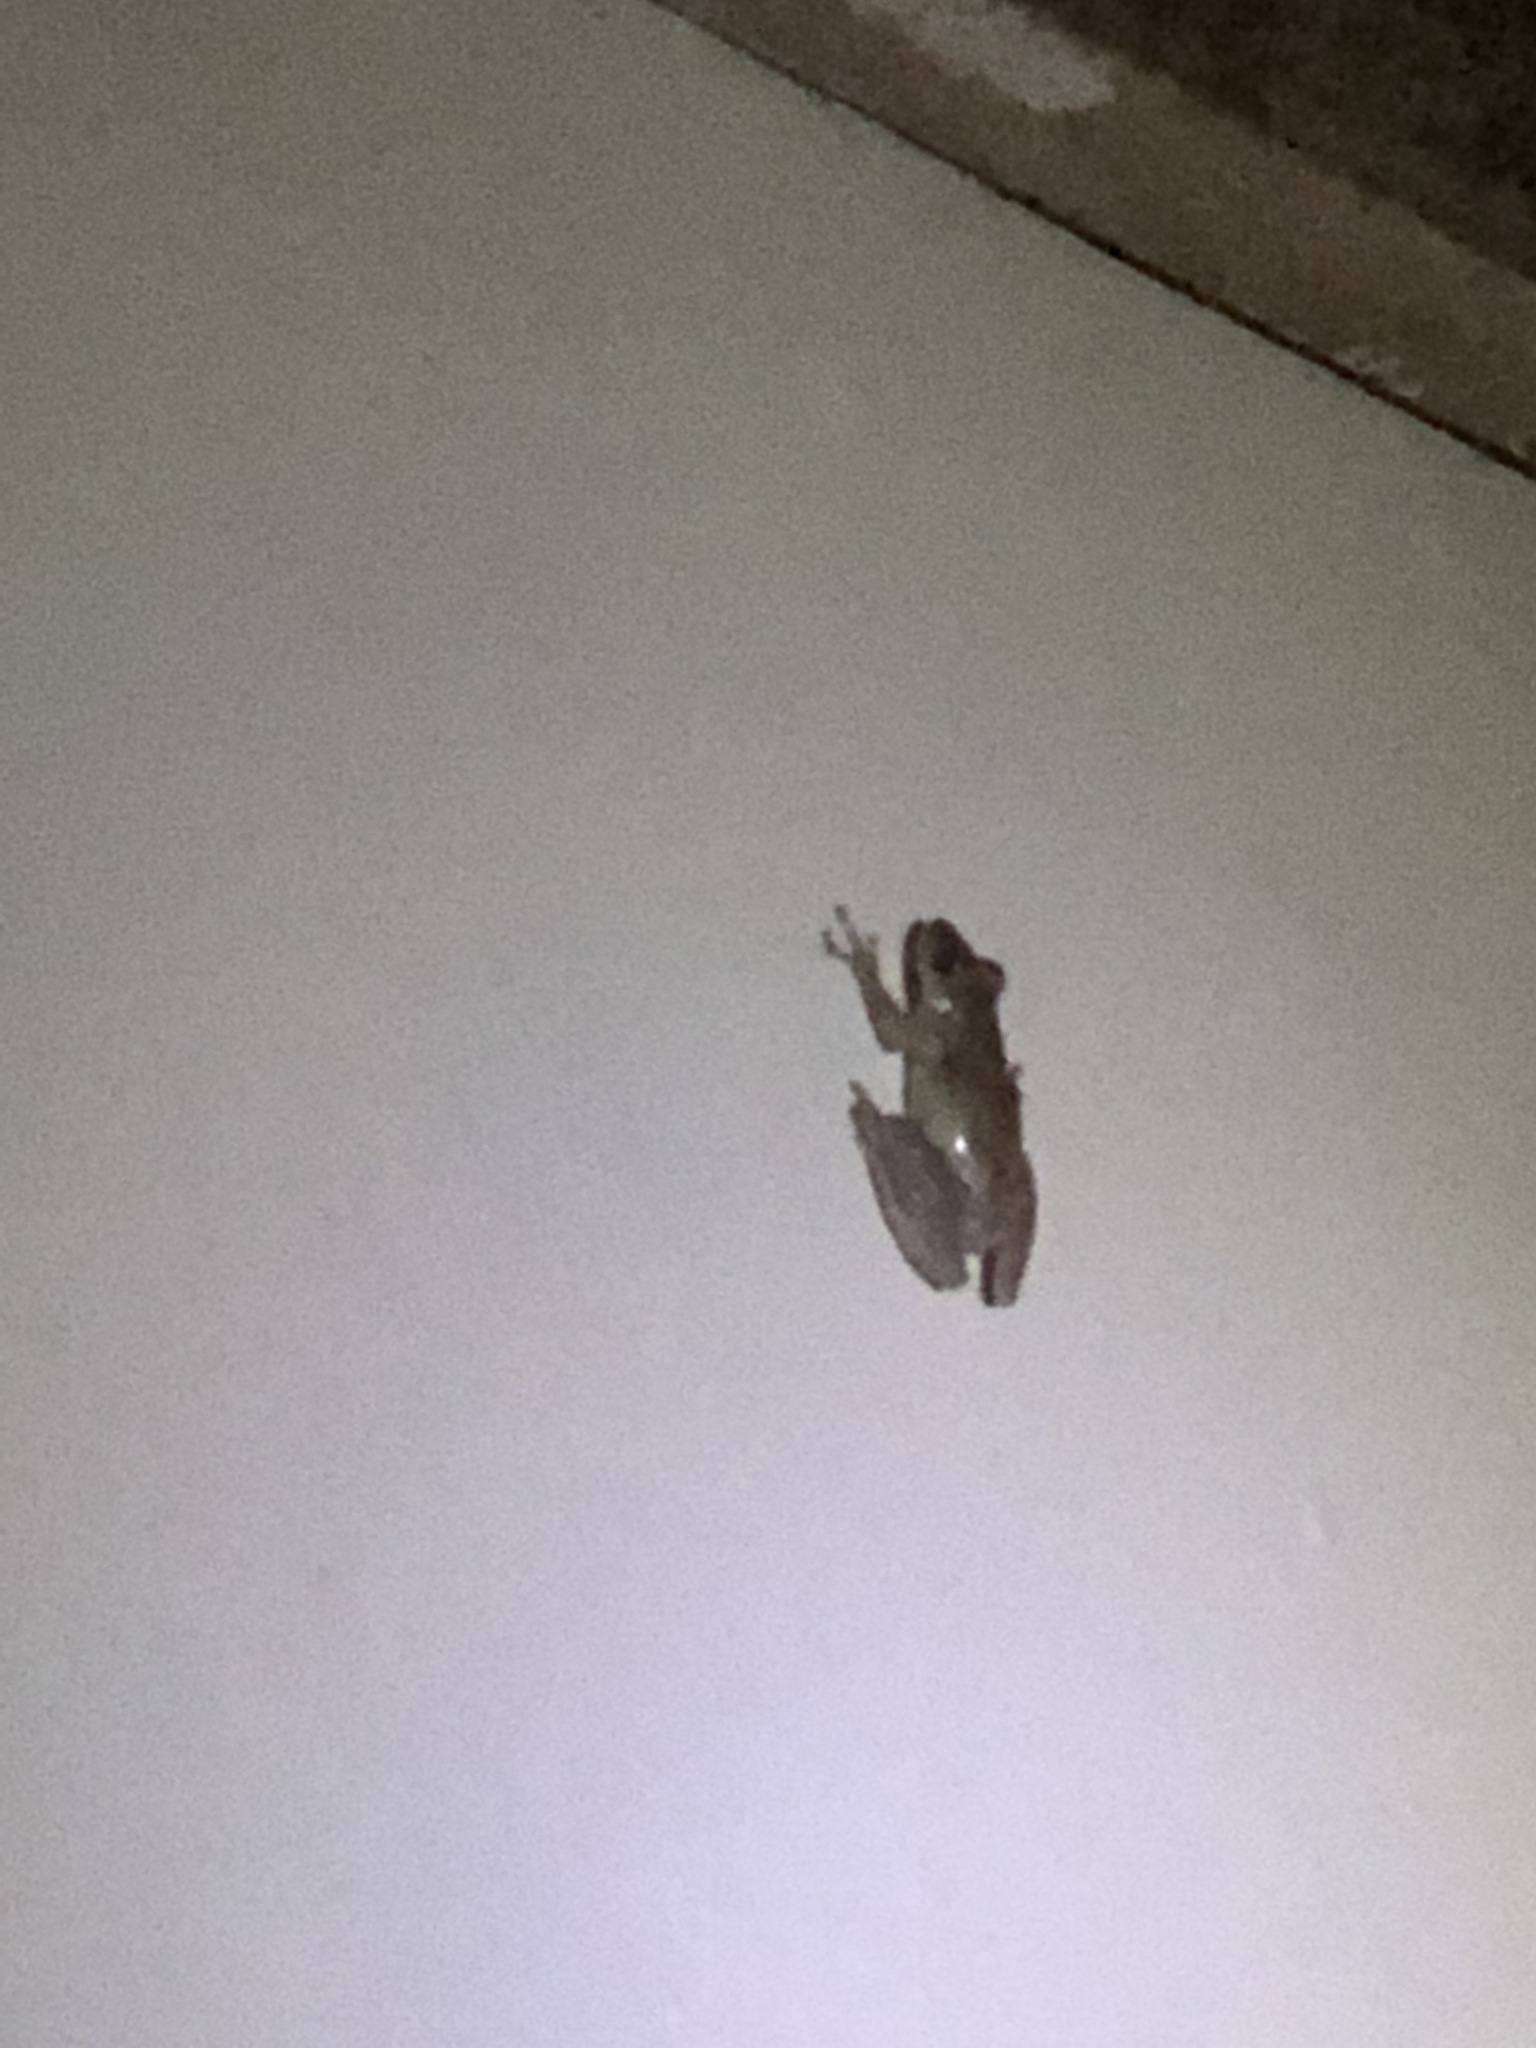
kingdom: Animalia
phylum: Chordata
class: Amphibia
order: Anura
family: Hylidae
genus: Scinax
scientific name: Scinax rostratus
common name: Caracas snouted treefrog
